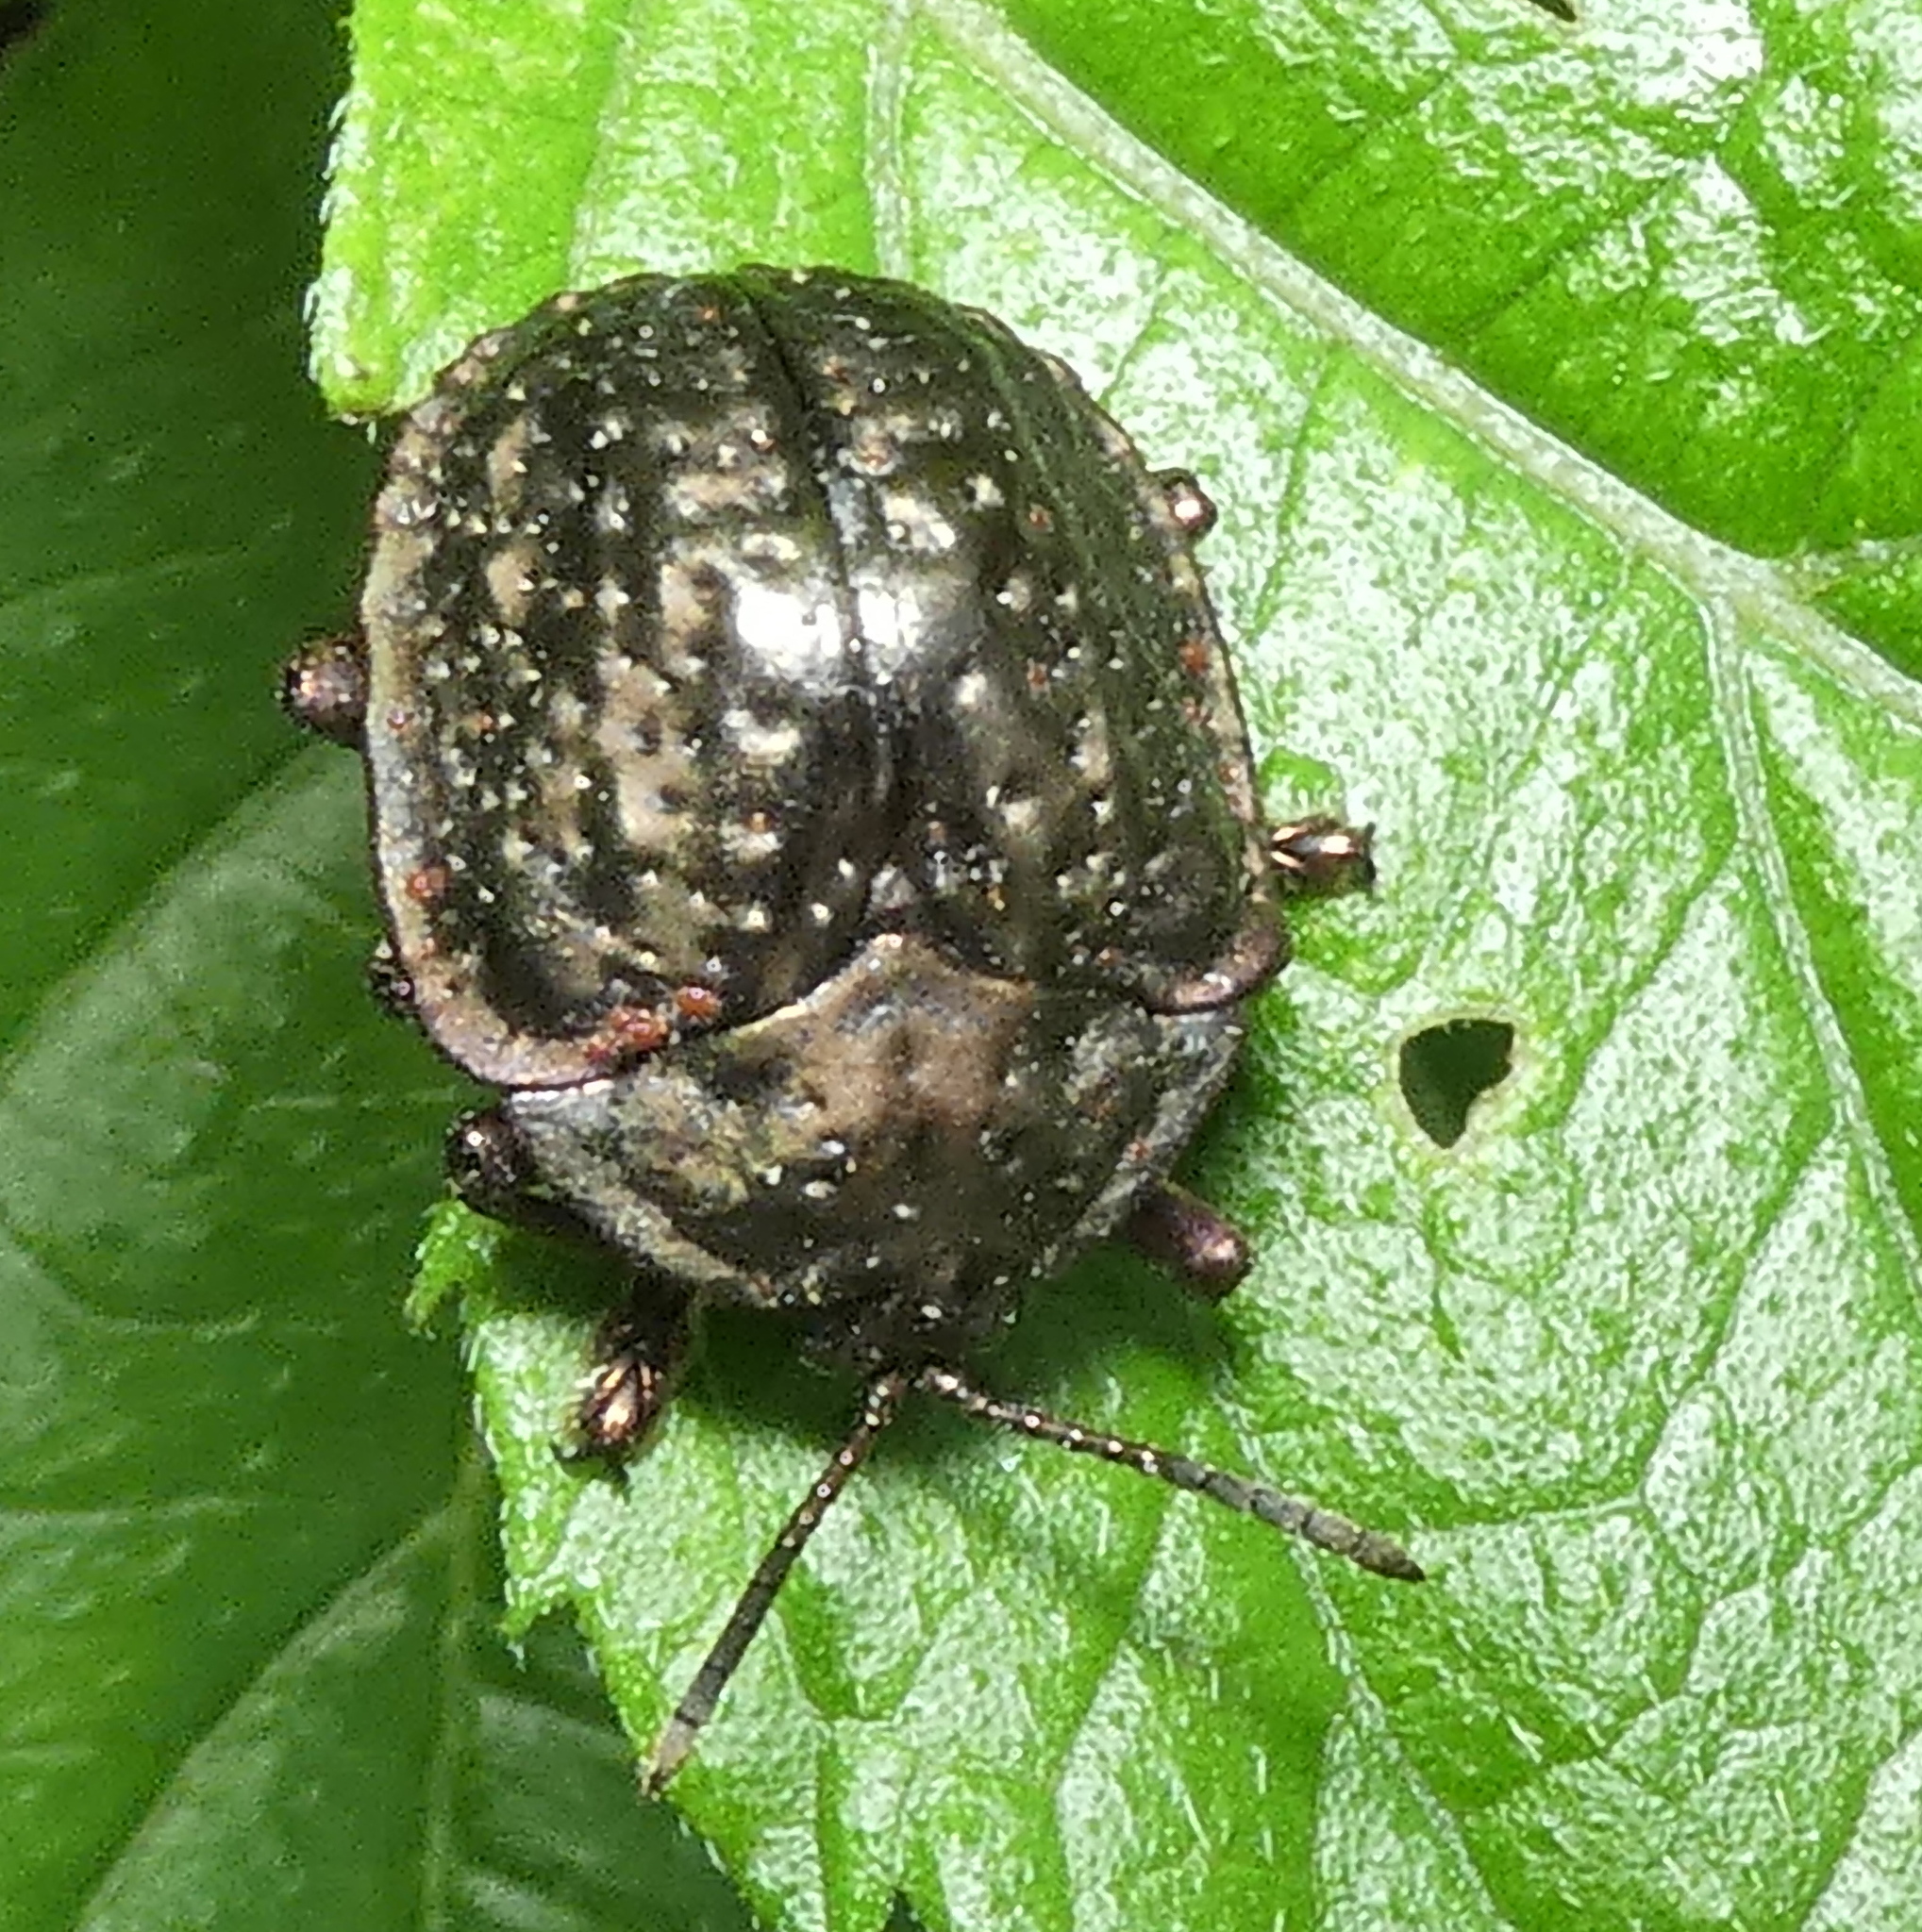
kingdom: Animalia
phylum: Arthropoda
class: Insecta
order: Coleoptera
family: Chrysomelidae
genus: Polychalca
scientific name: Polychalca aerea
